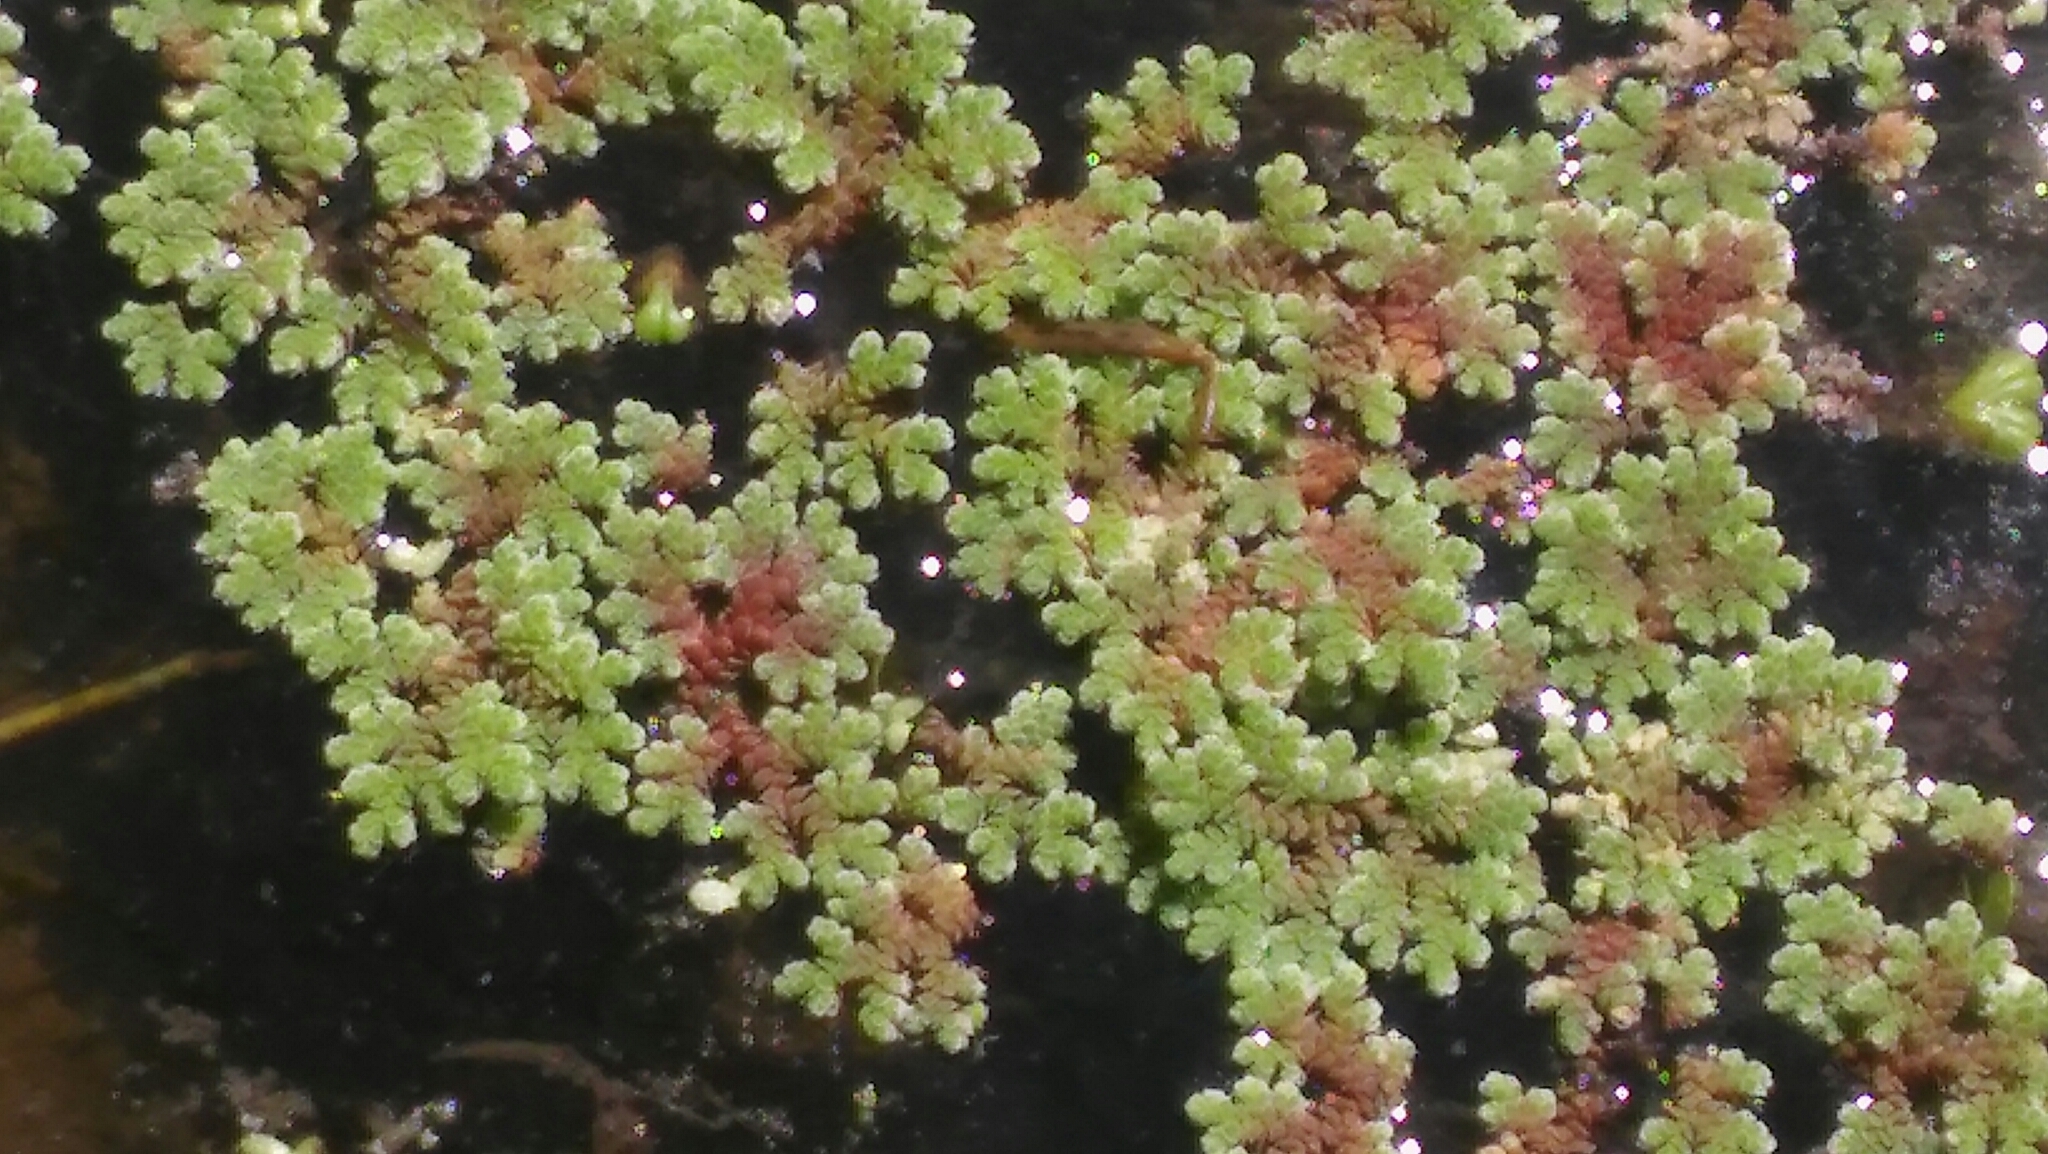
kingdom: Plantae
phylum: Tracheophyta
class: Polypodiopsida
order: Salviniales
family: Salviniaceae
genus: Azolla
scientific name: Azolla filiculoides
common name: Water fern
